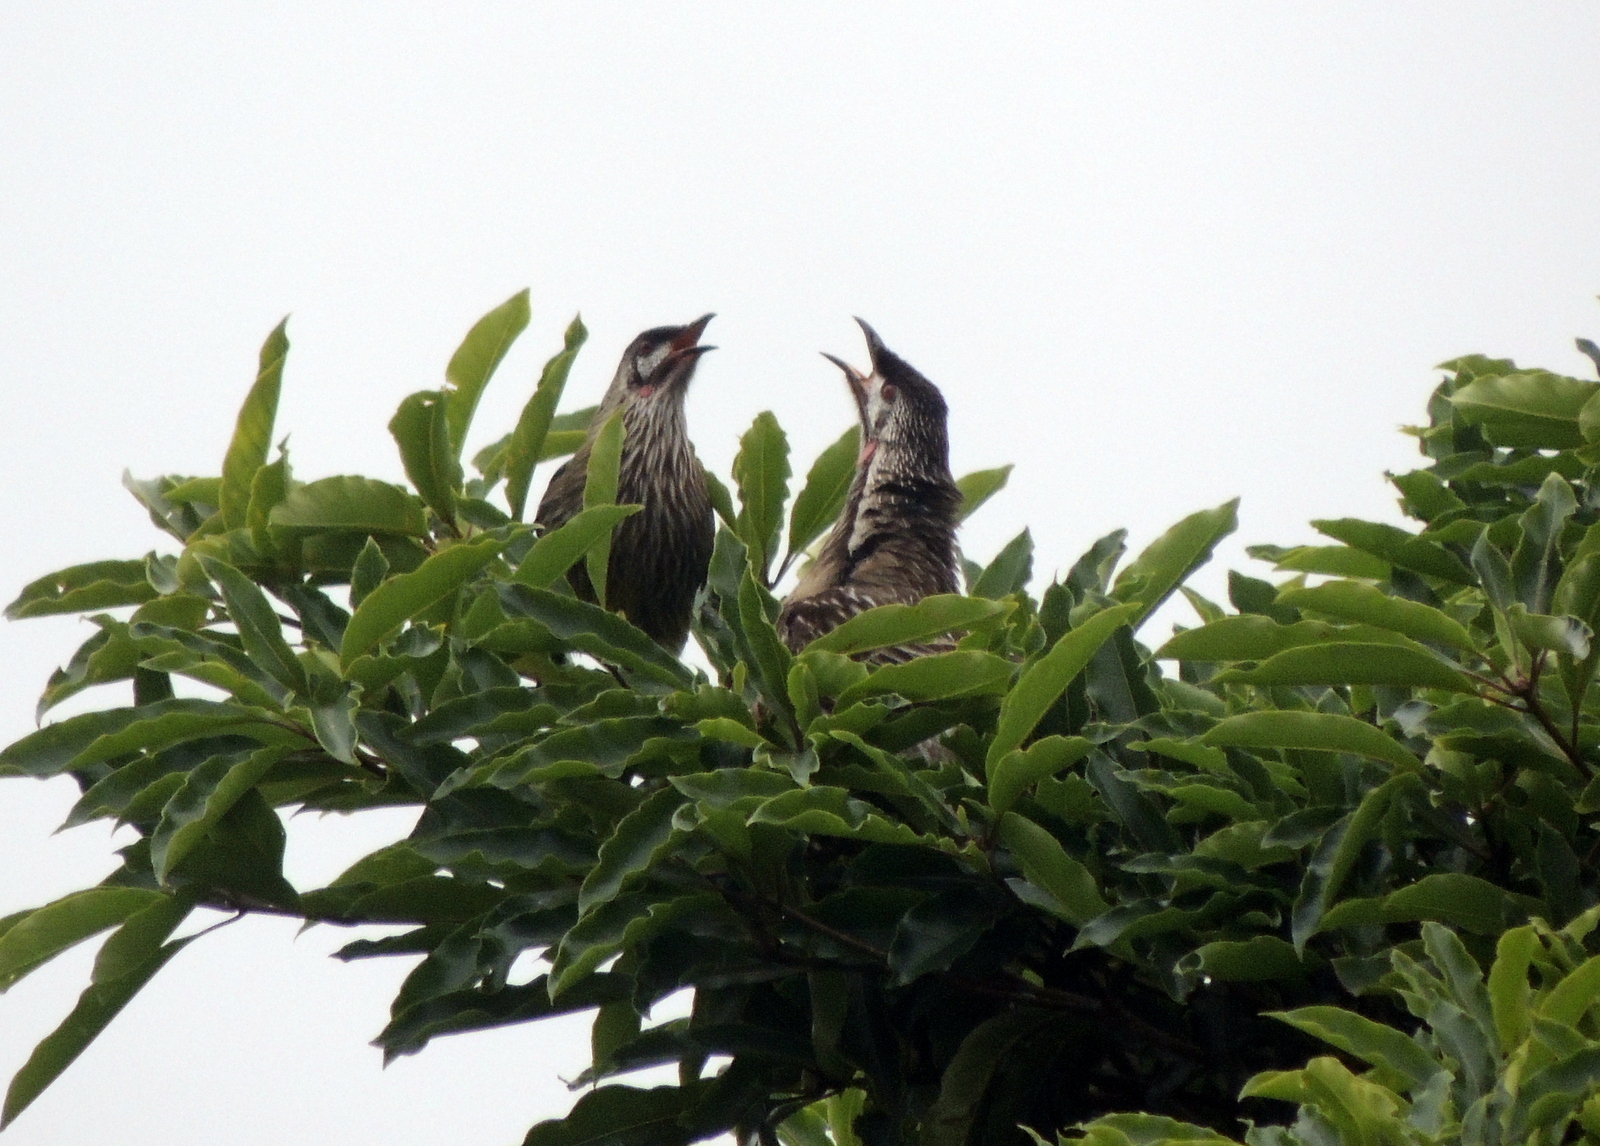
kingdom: Animalia
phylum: Chordata
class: Aves
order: Passeriformes
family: Meliphagidae
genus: Anthochaera
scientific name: Anthochaera carunculata
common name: Red wattlebird
